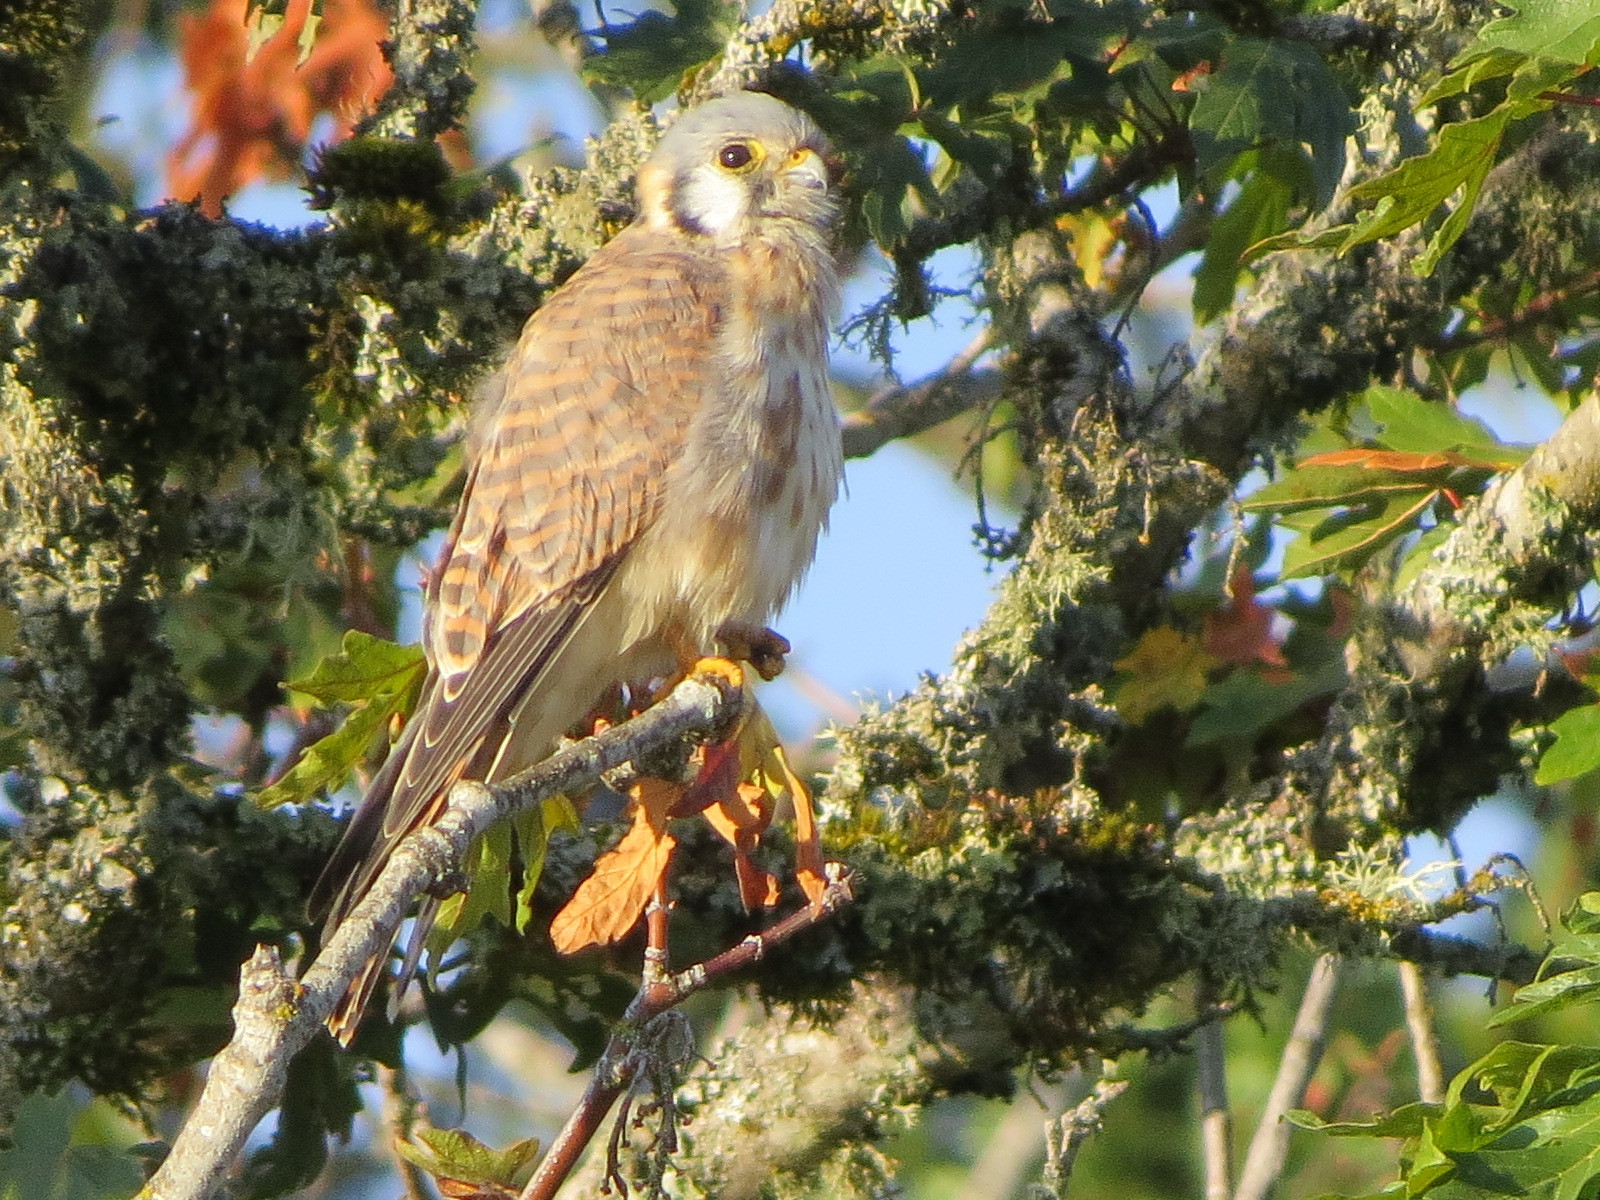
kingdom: Animalia
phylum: Chordata
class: Aves
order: Falconiformes
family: Falconidae
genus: Falco
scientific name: Falco sparverius
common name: American kestrel
